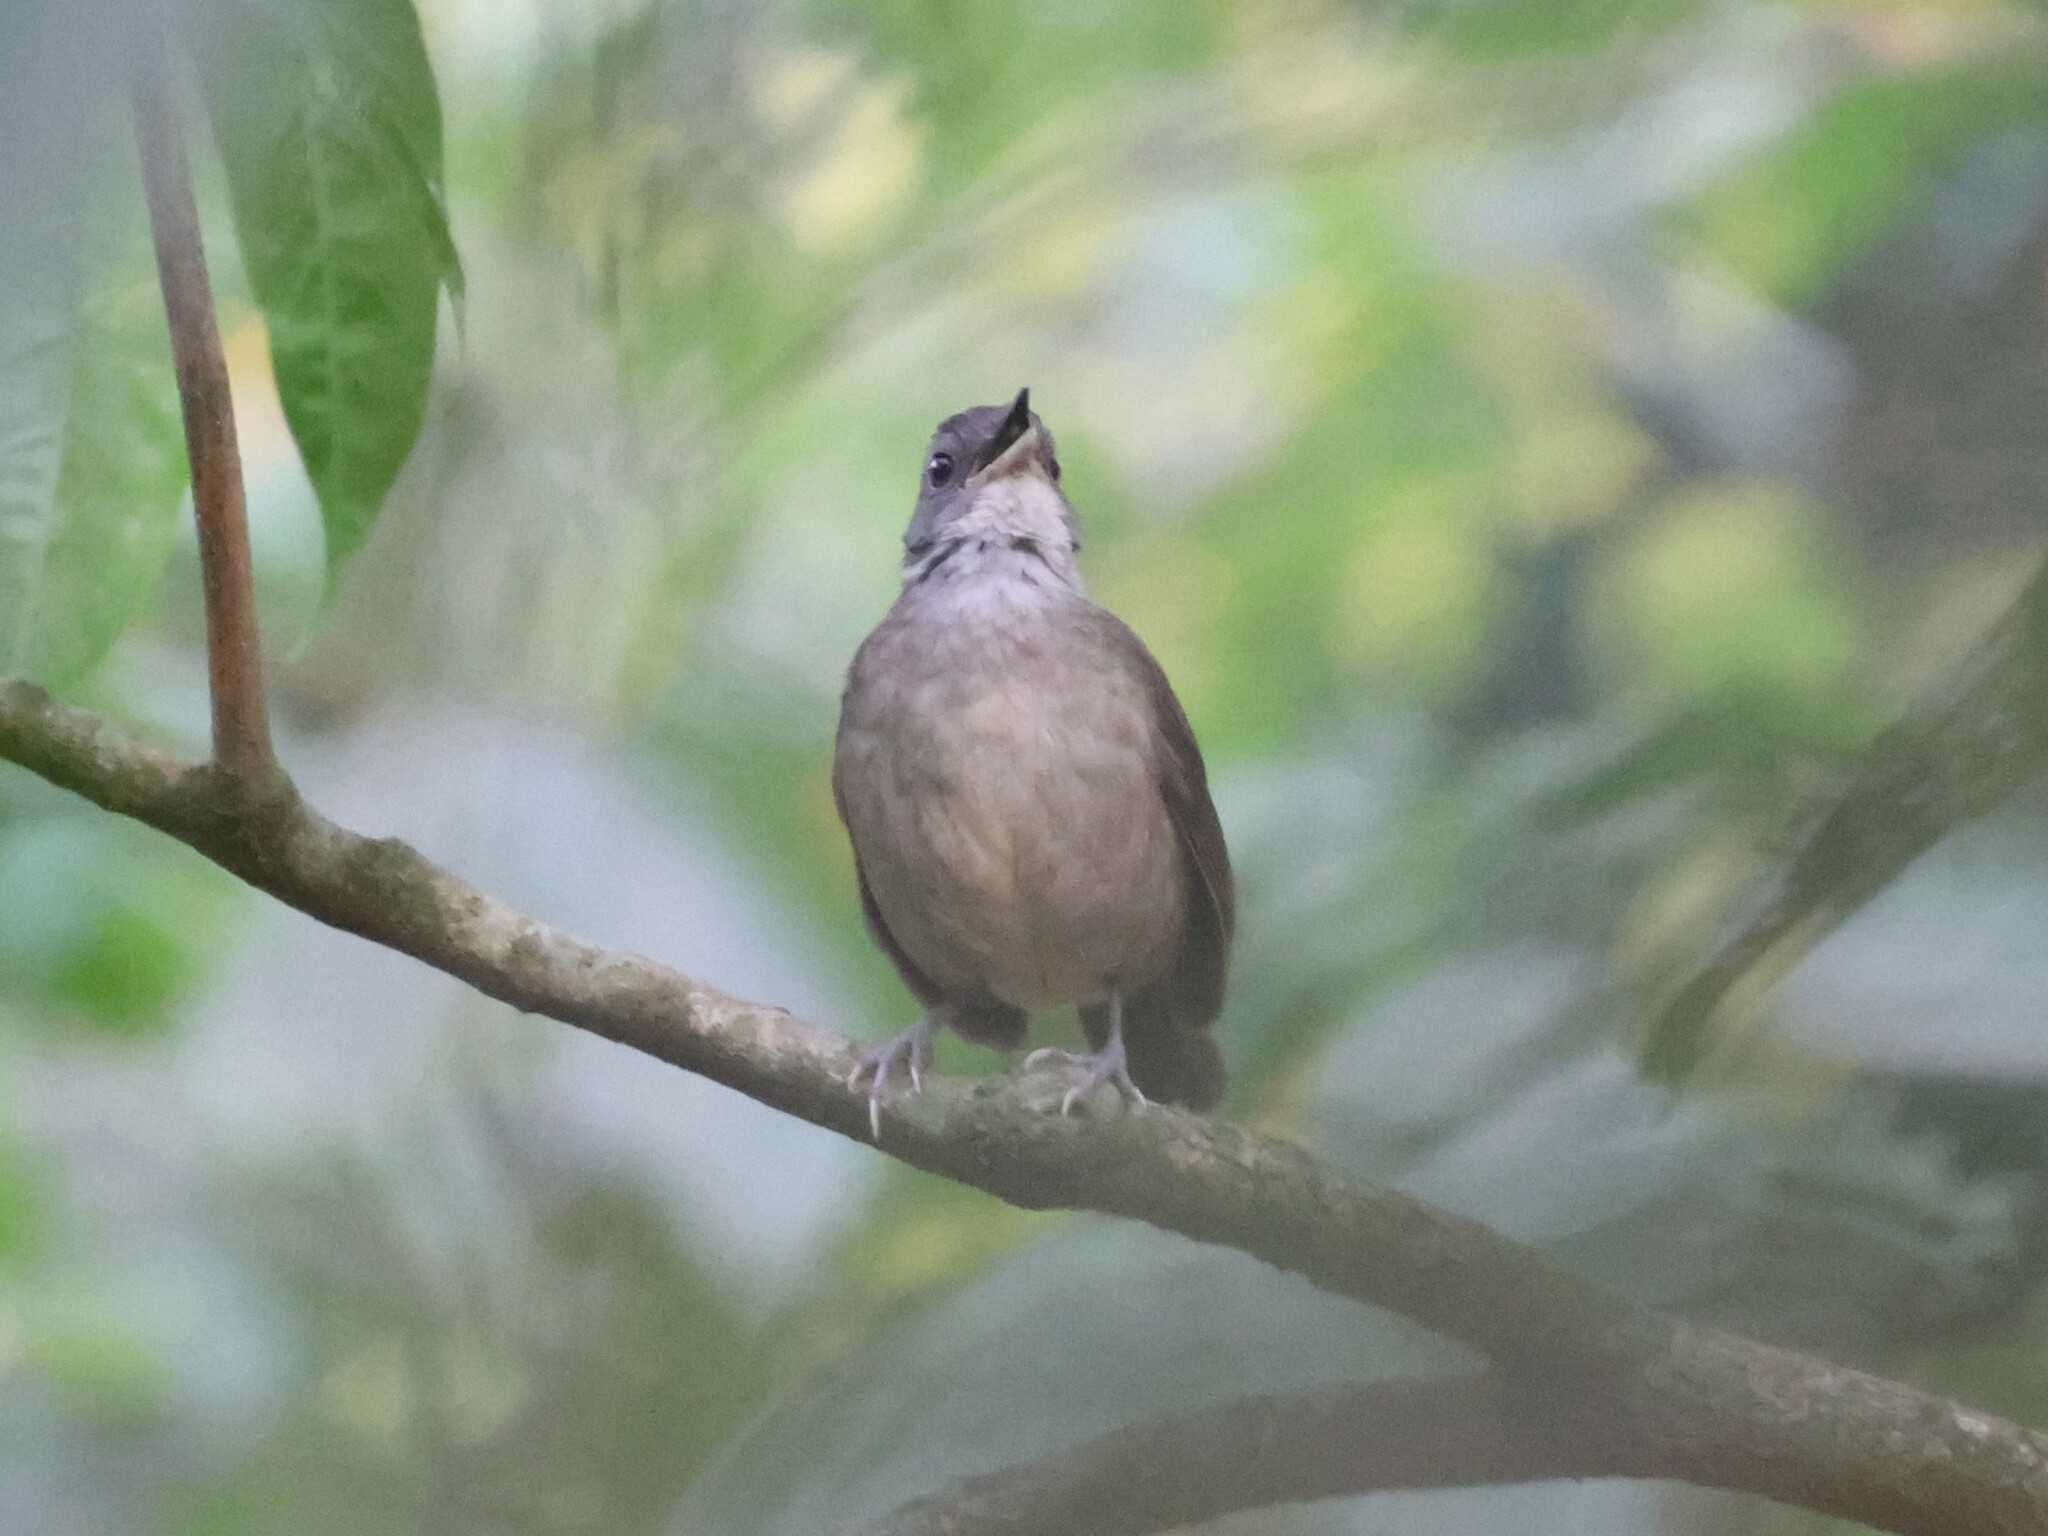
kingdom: Animalia
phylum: Chordata
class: Aves
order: Passeriformes
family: Pellorneidae
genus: Illadopsis
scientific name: Illadopsis albipectus
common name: Scaly-breasted illadopsis
